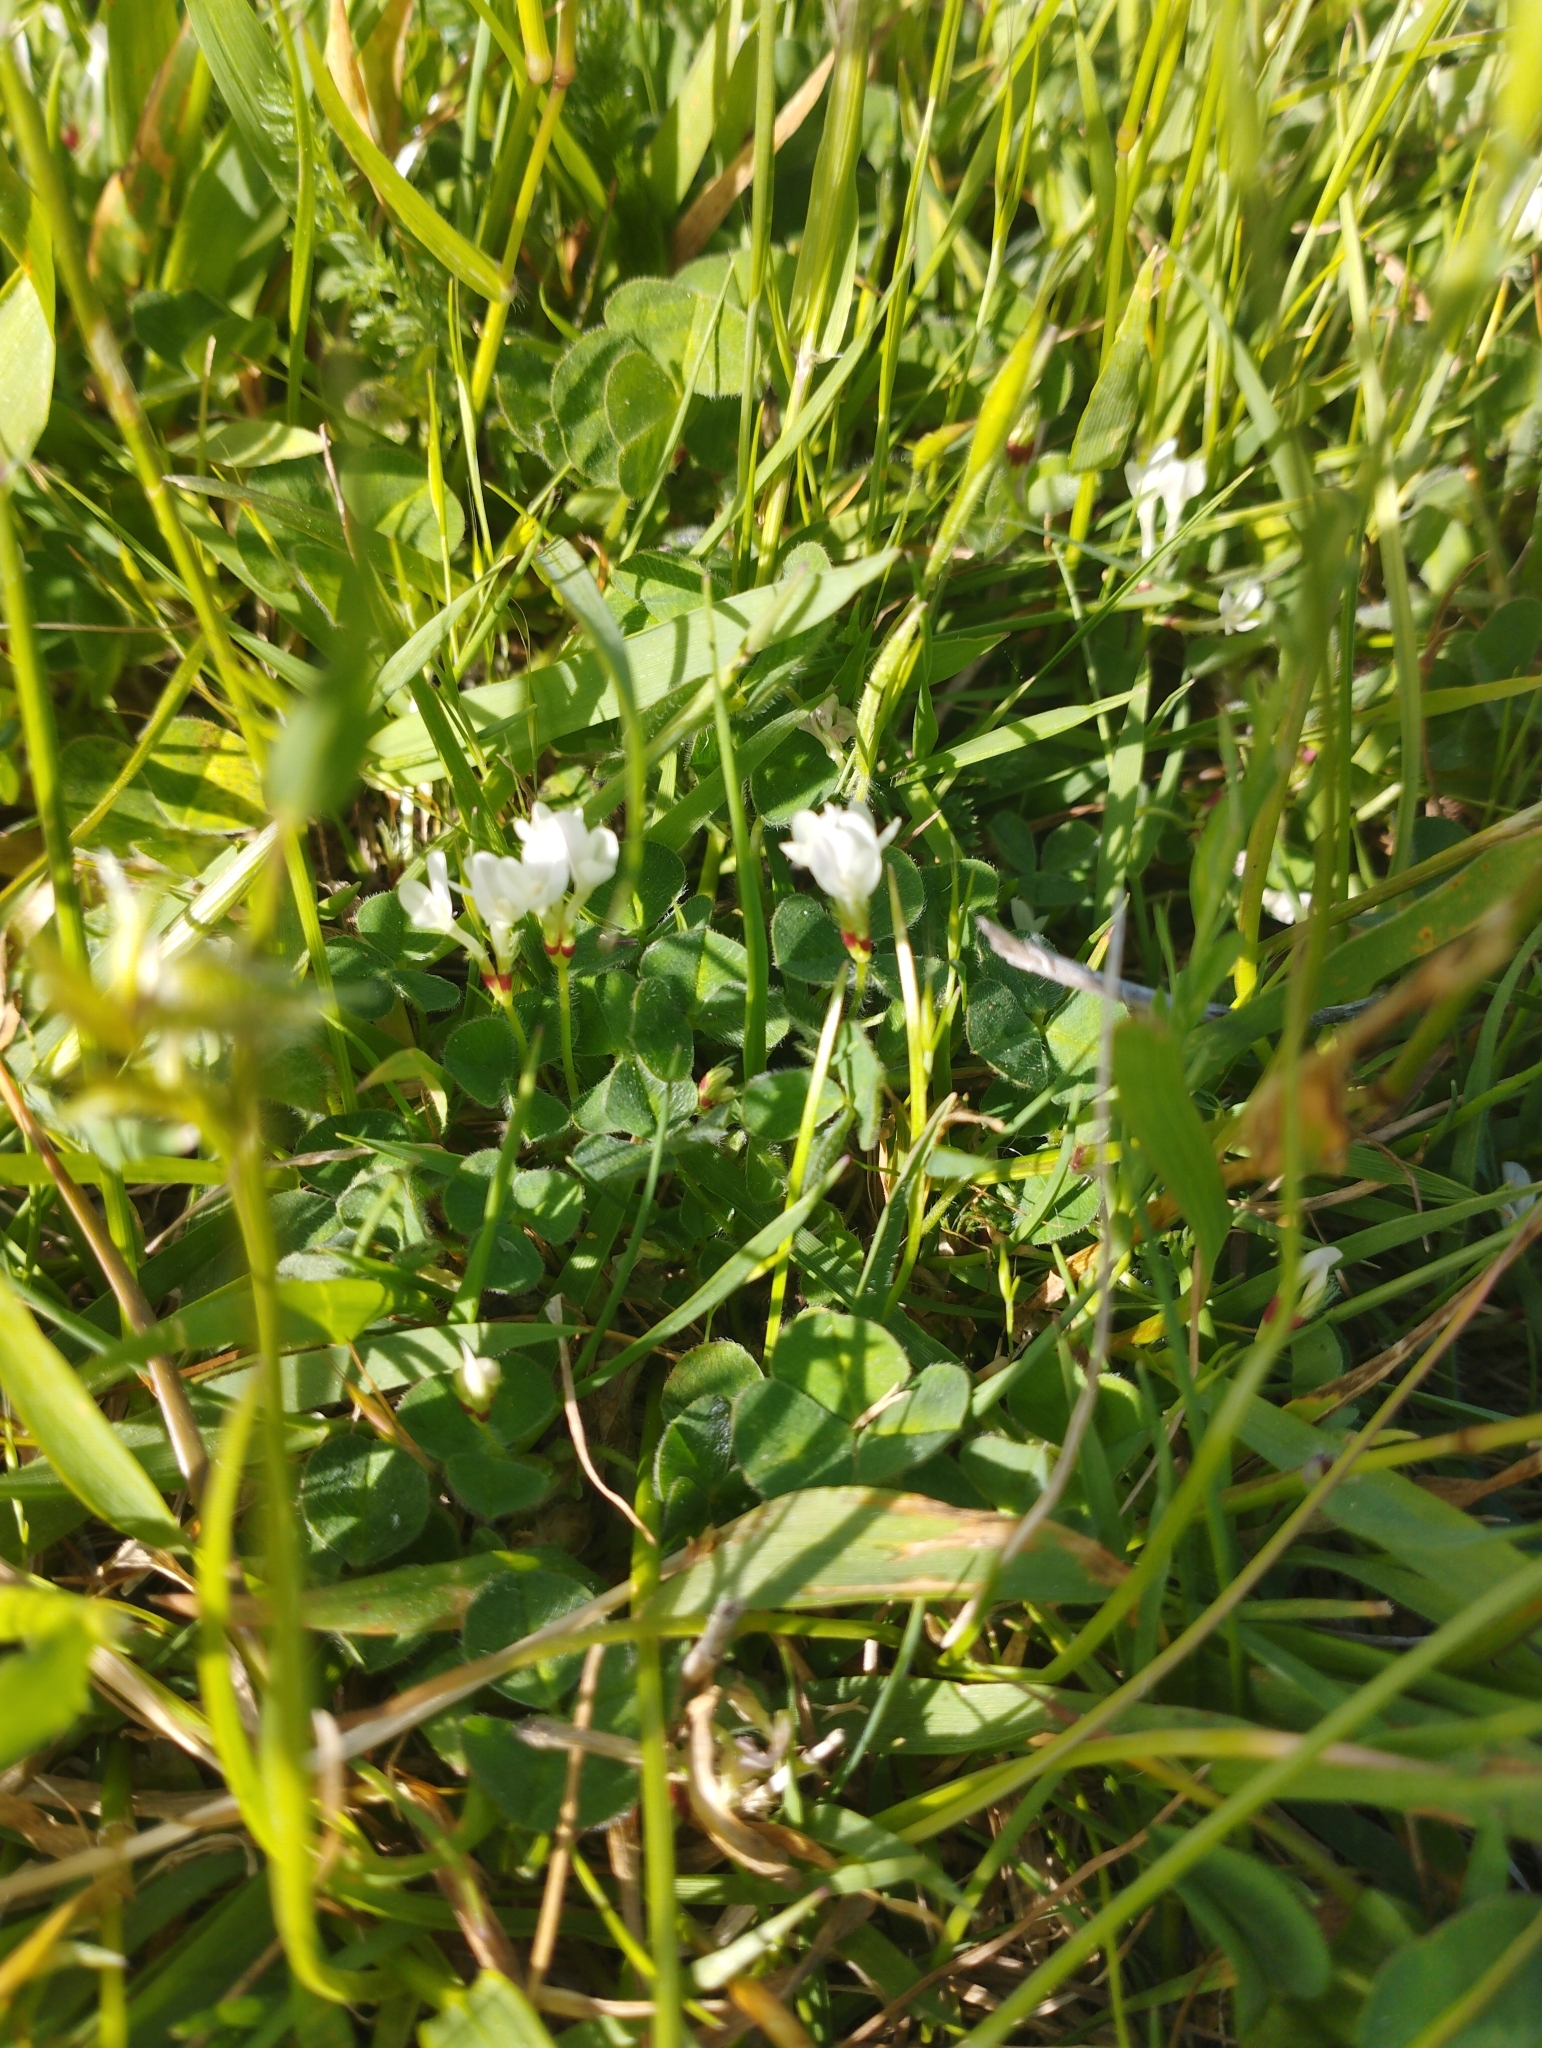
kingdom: Plantae
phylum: Tracheophyta
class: Magnoliopsida
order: Fabales
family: Fabaceae
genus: Trifolium
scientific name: Trifolium subterraneum
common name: Subterranean clover
